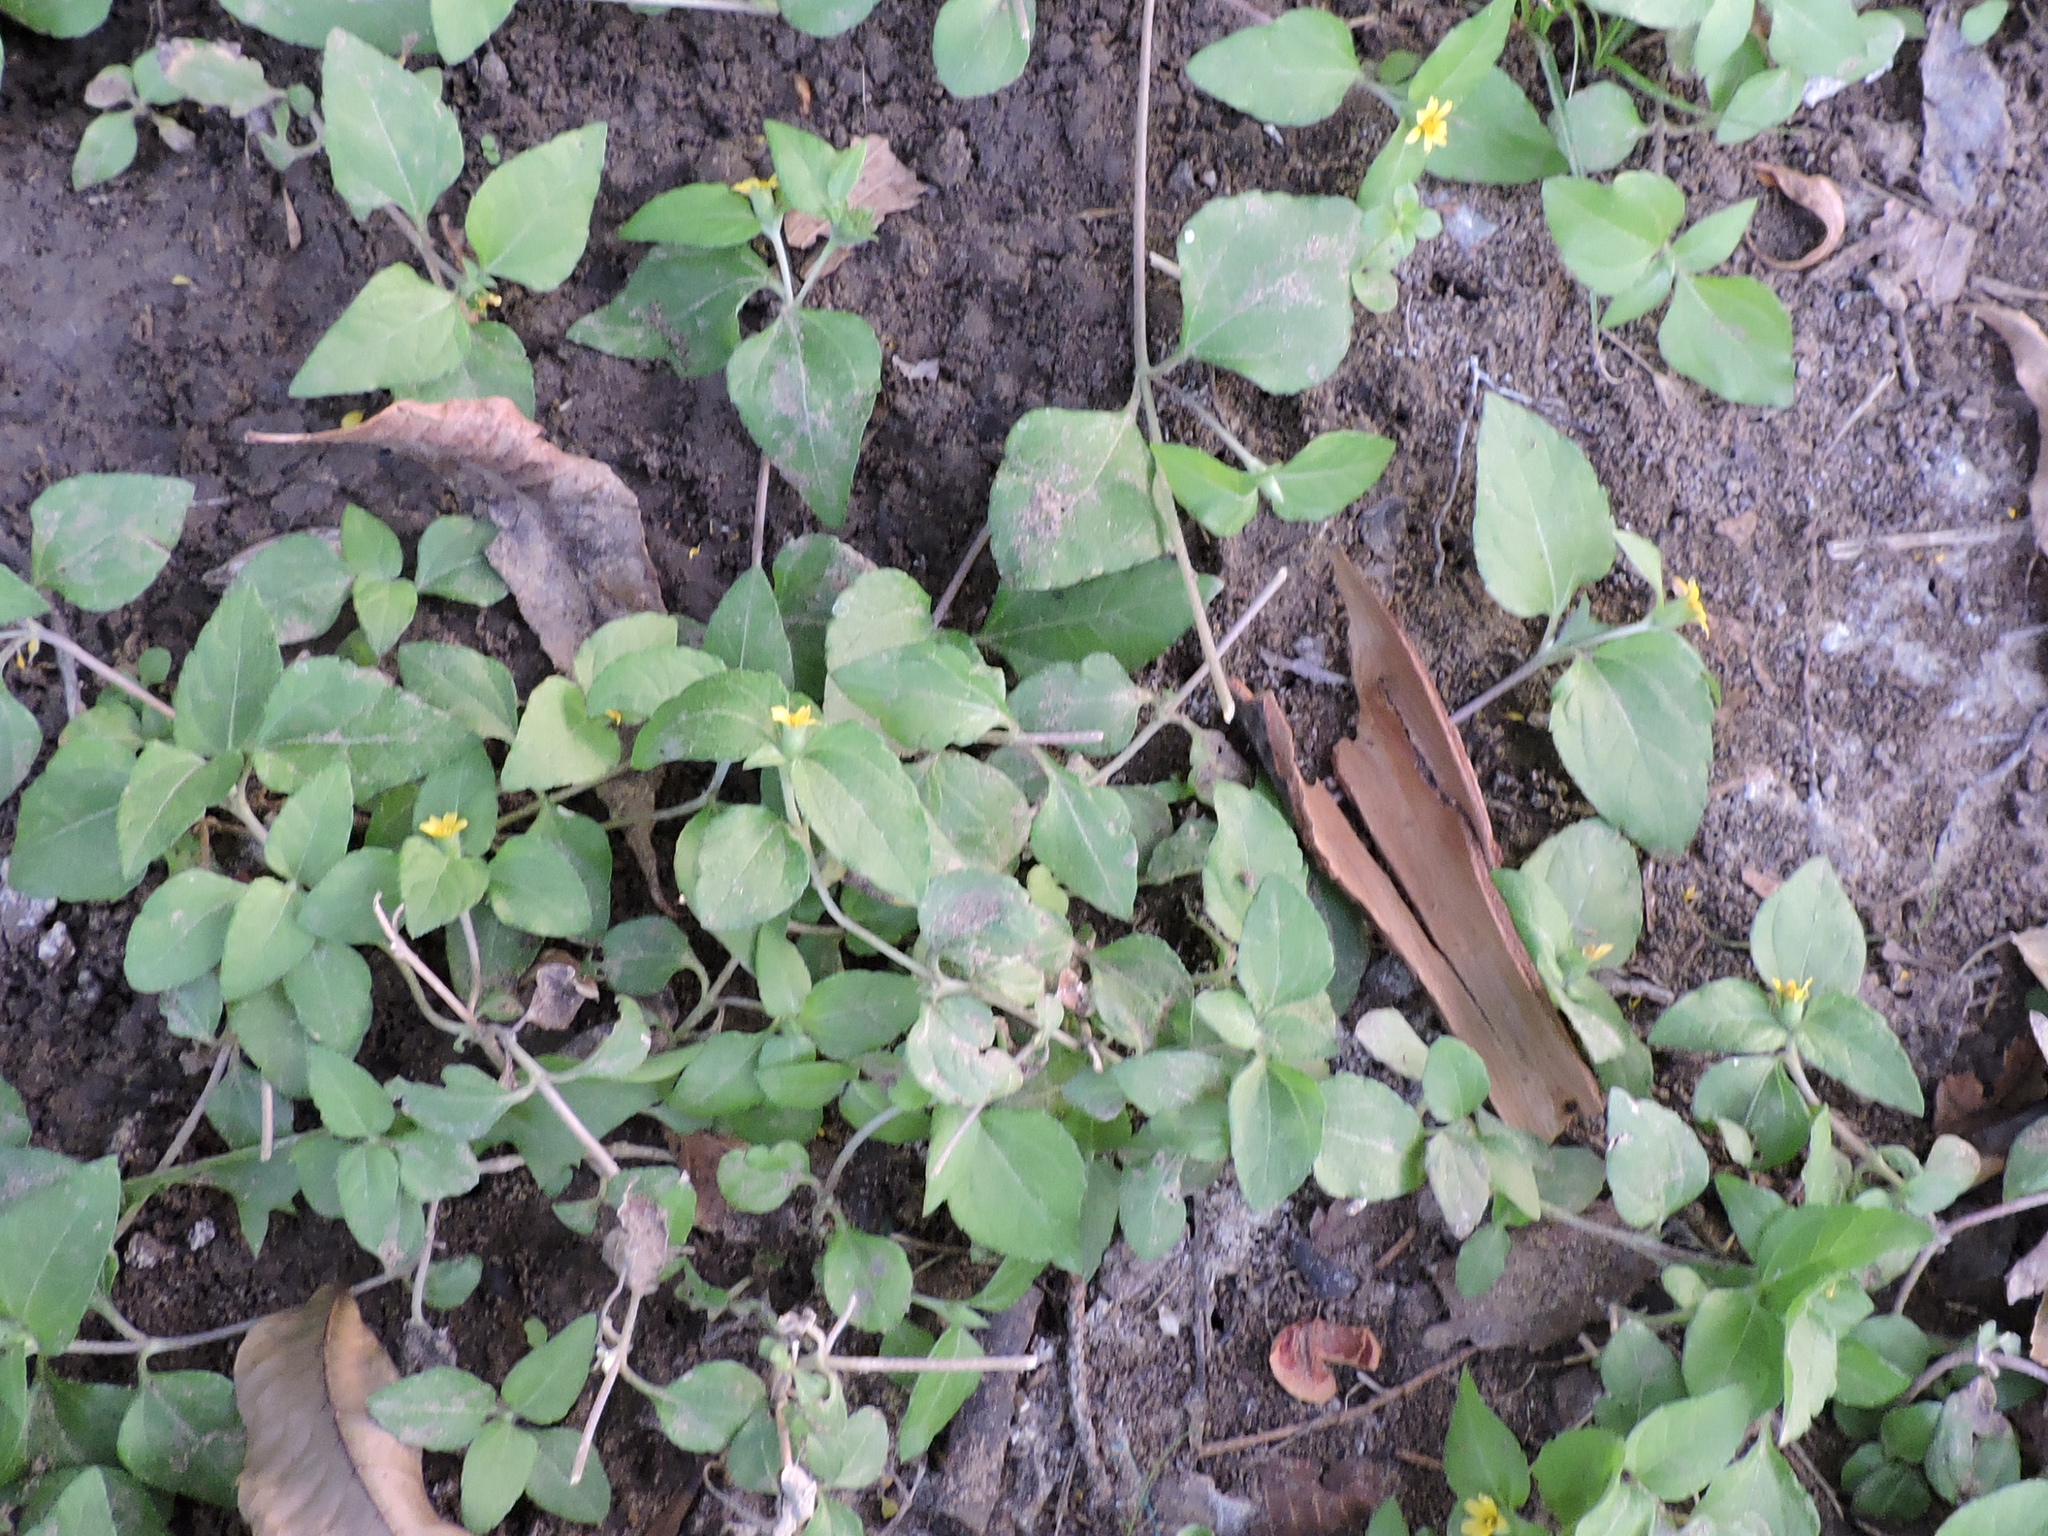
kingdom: Plantae
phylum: Tracheophyta
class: Magnoliopsida
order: Asterales
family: Asteraceae
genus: Calyptocarpus
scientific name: Calyptocarpus vialis
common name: Straggler daisy
